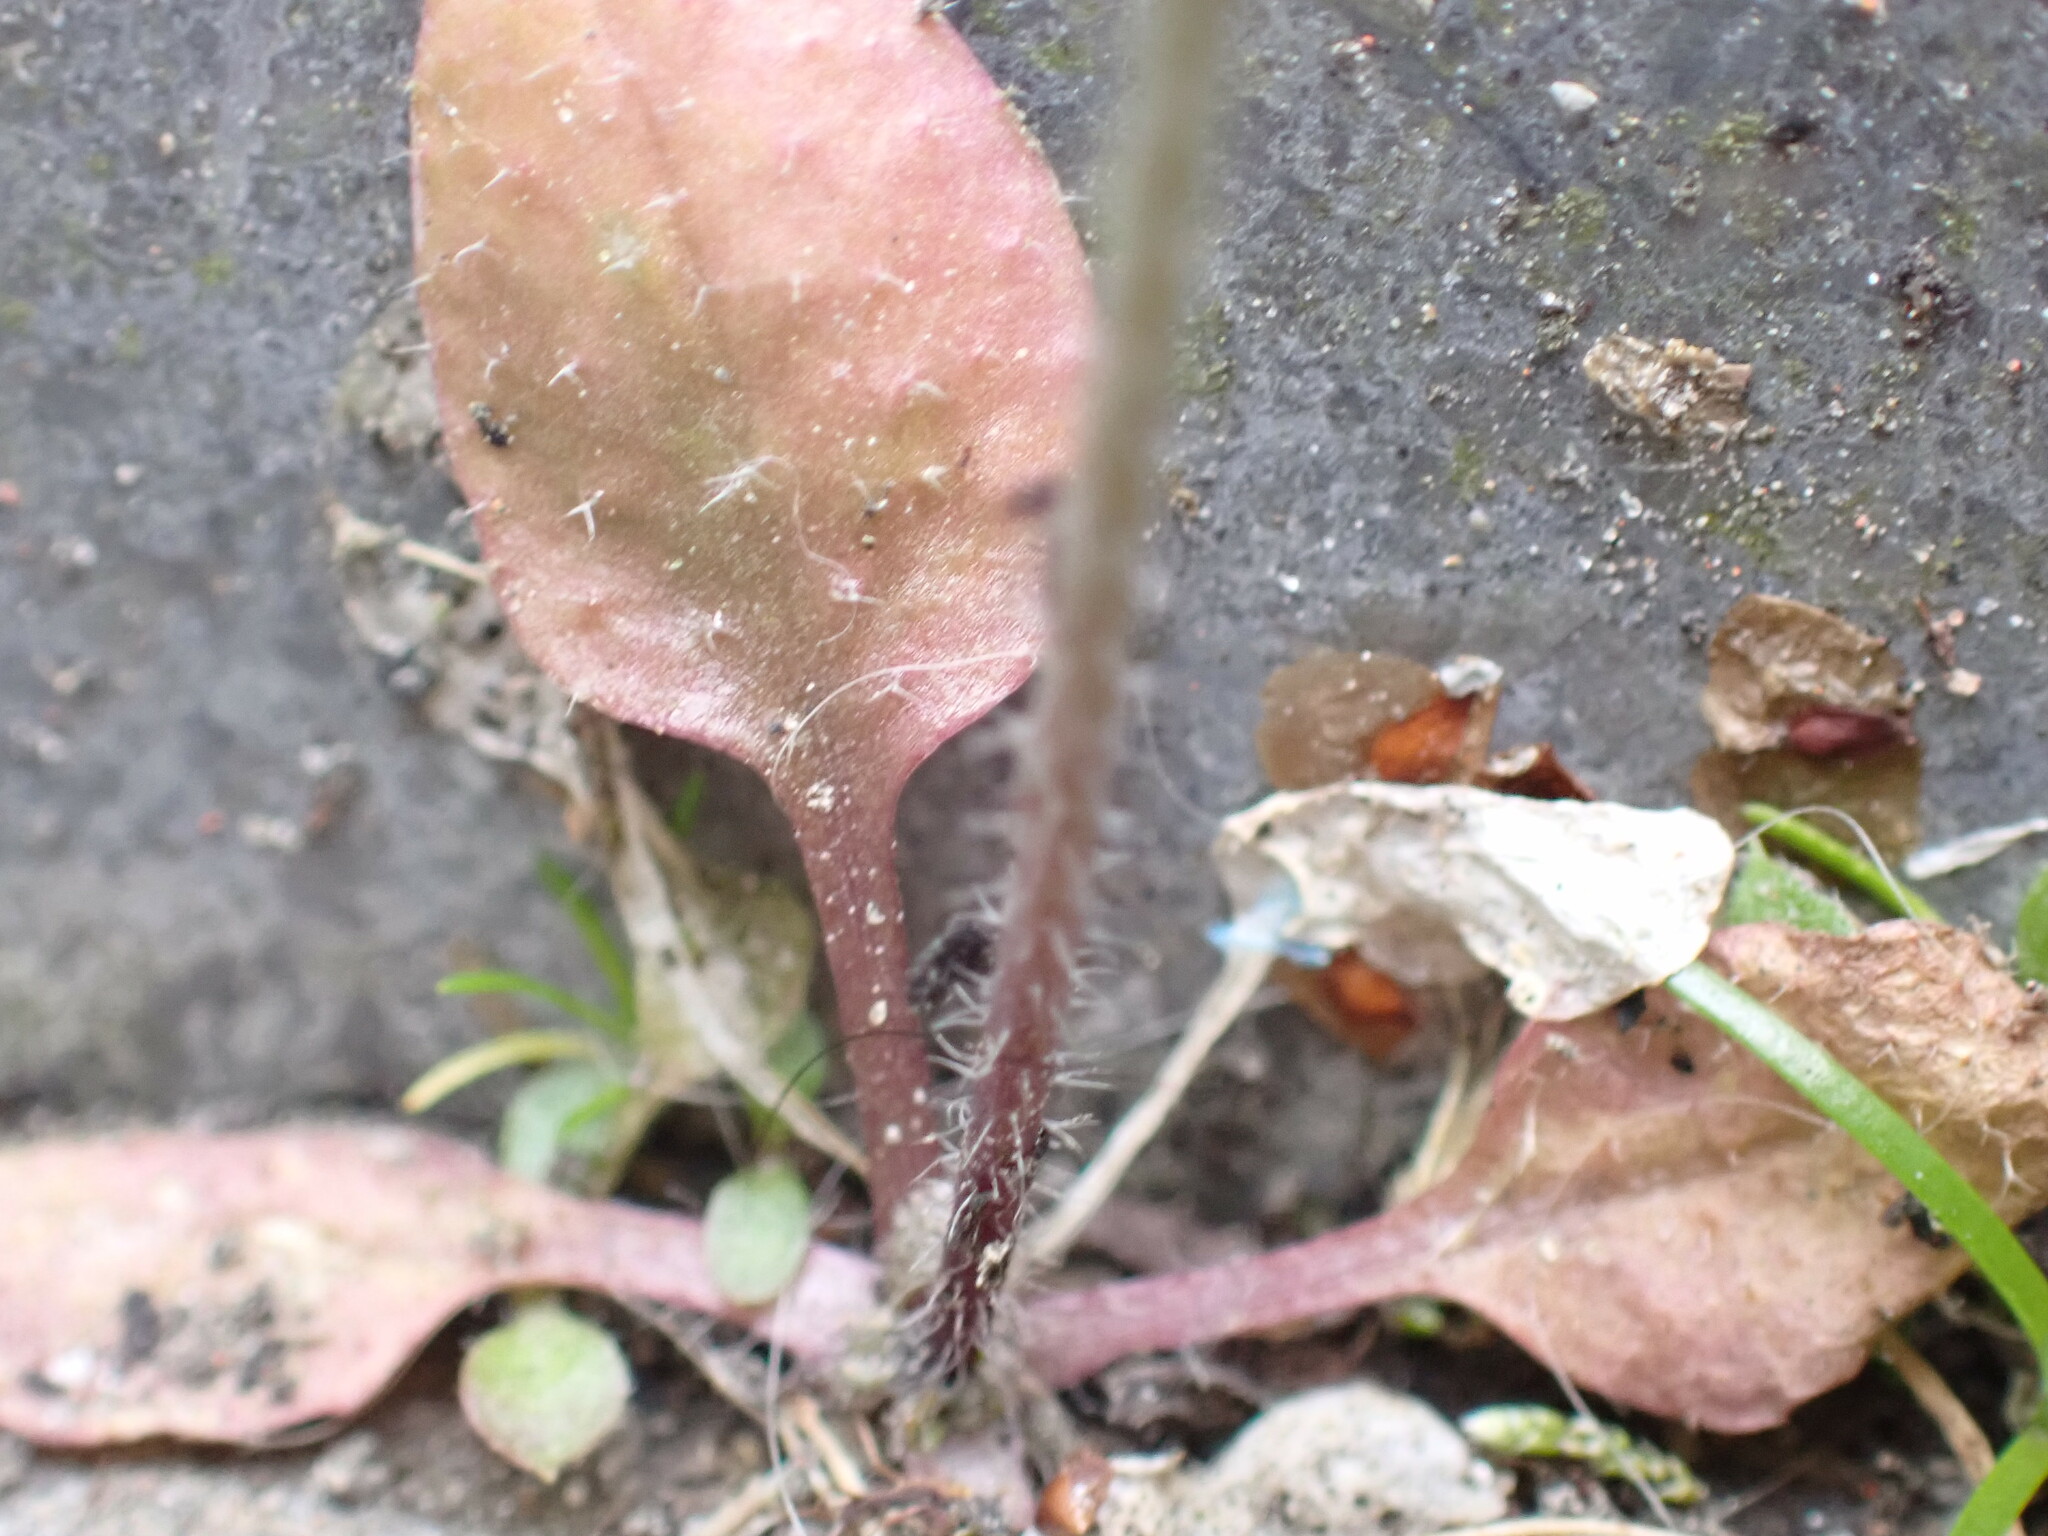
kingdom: Plantae
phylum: Tracheophyta
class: Magnoliopsida
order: Brassicales
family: Brassicaceae
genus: Arabidopsis
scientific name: Arabidopsis thaliana
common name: Thale cress
